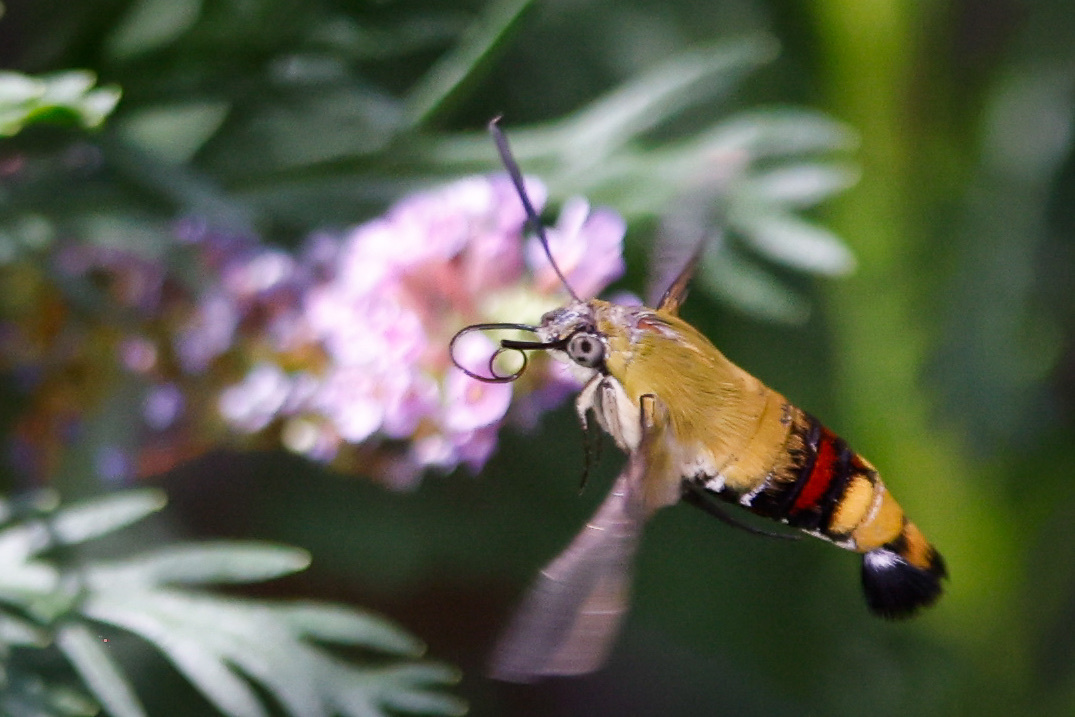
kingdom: Animalia
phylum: Arthropoda
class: Insecta
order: Lepidoptera
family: Sphingidae
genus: Cephonodes
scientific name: Cephonodes hylas
